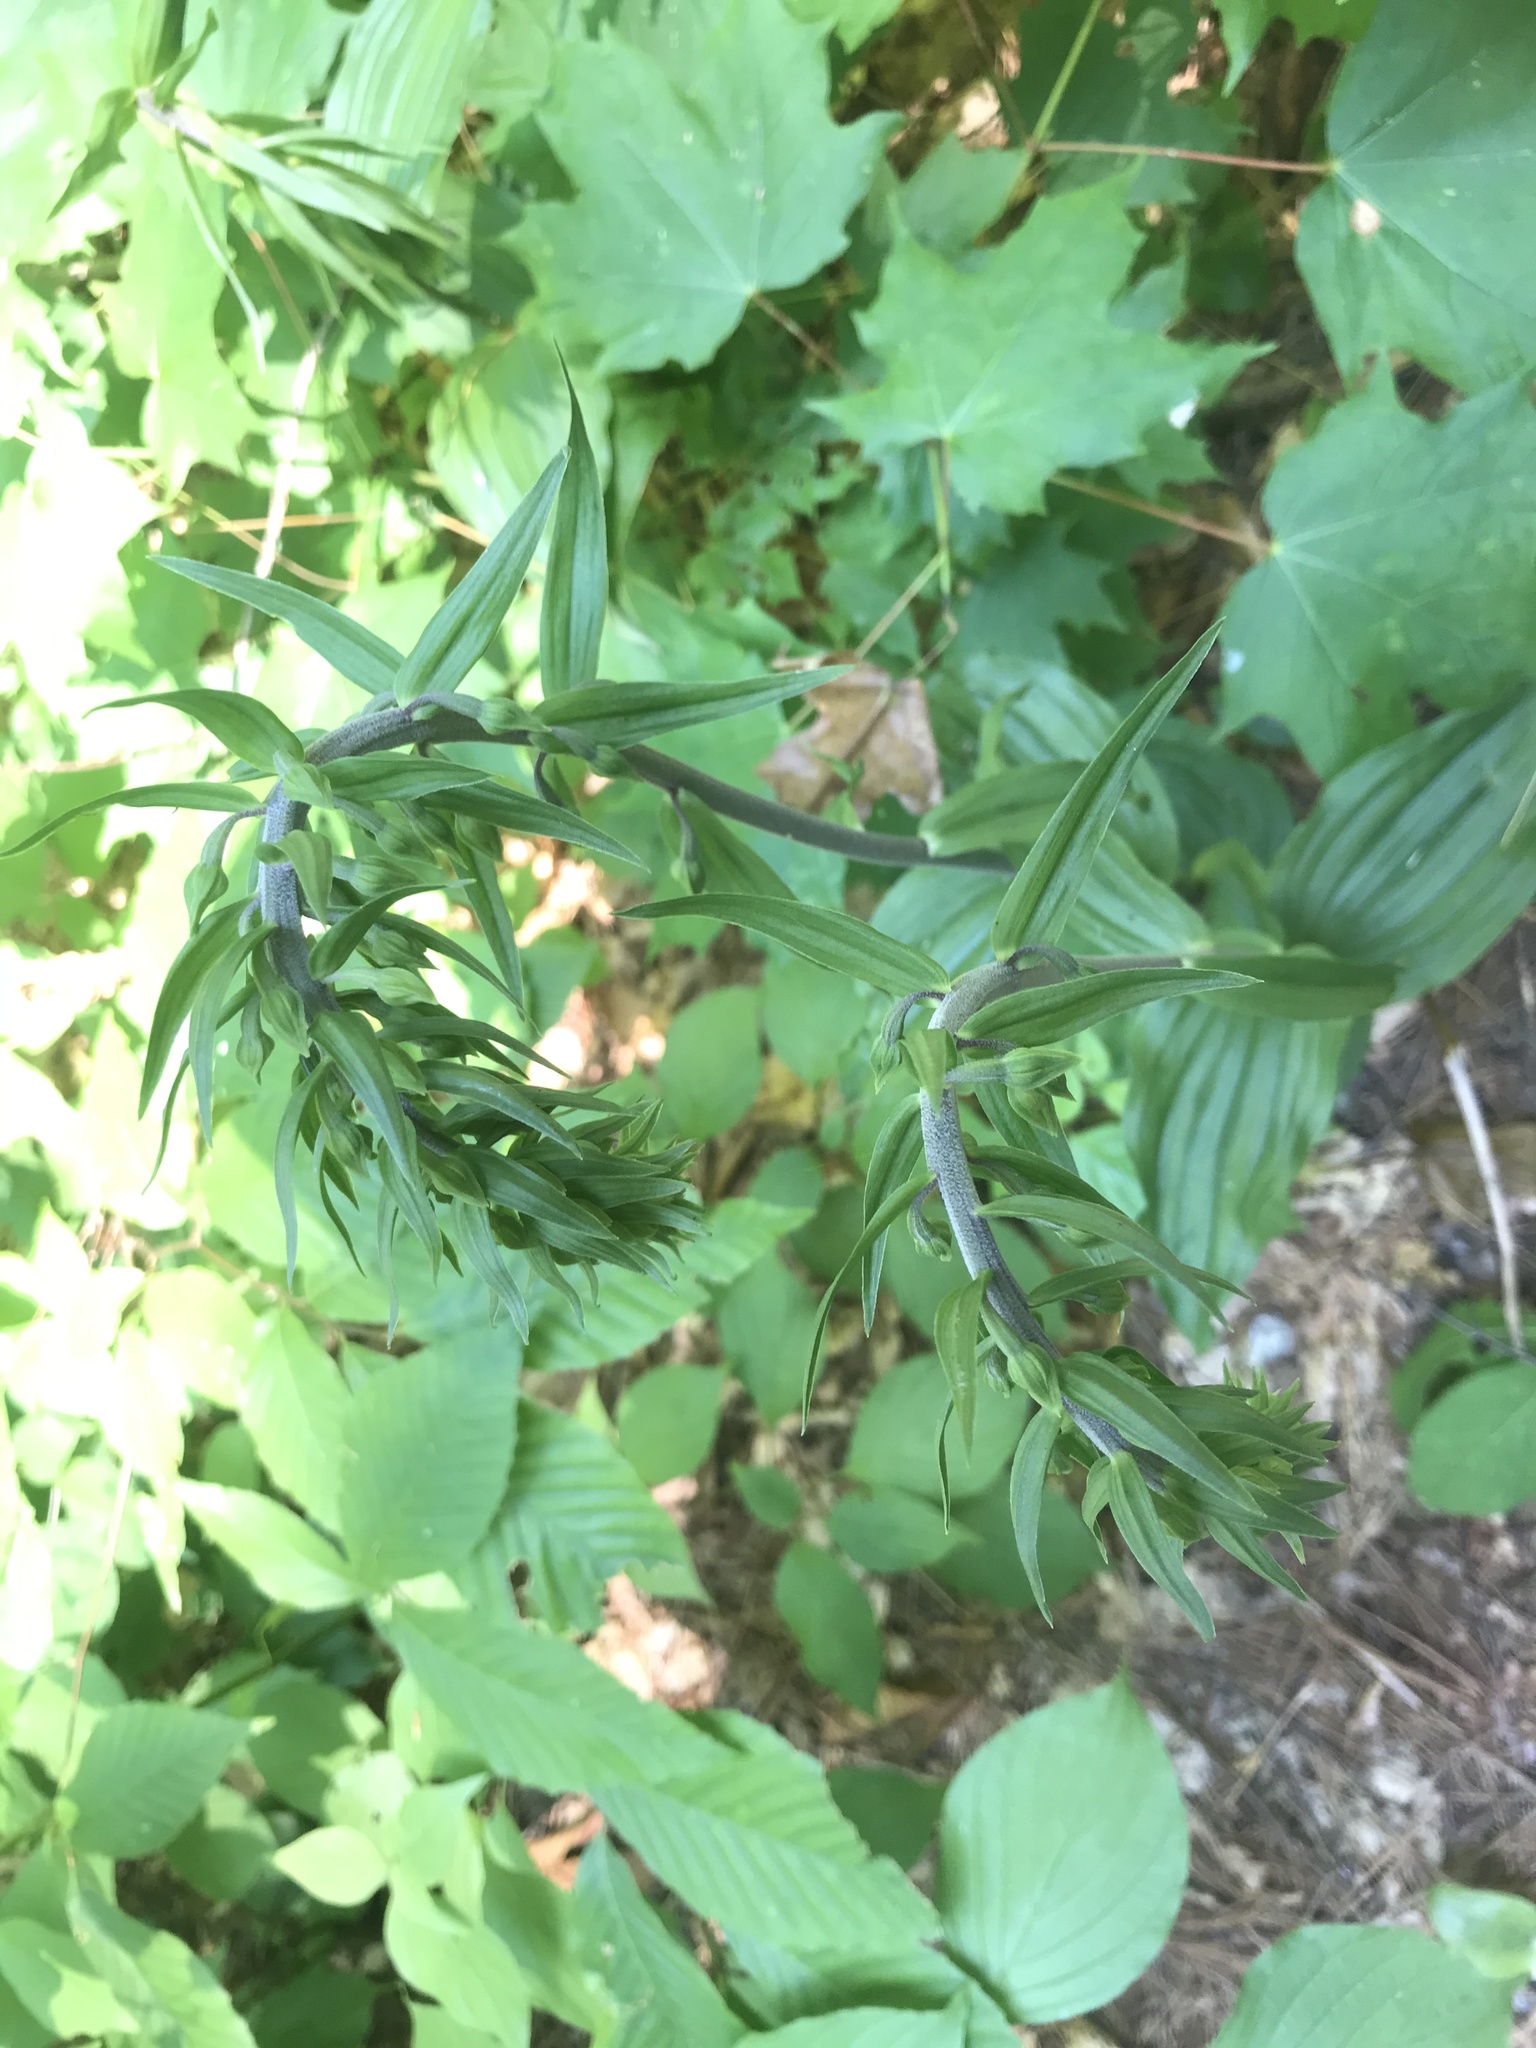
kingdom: Plantae
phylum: Tracheophyta
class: Liliopsida
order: Asparagales
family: Orchidaceae
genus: Epipactis
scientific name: Epipactis helleborine
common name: Broad-leaved helleborine
